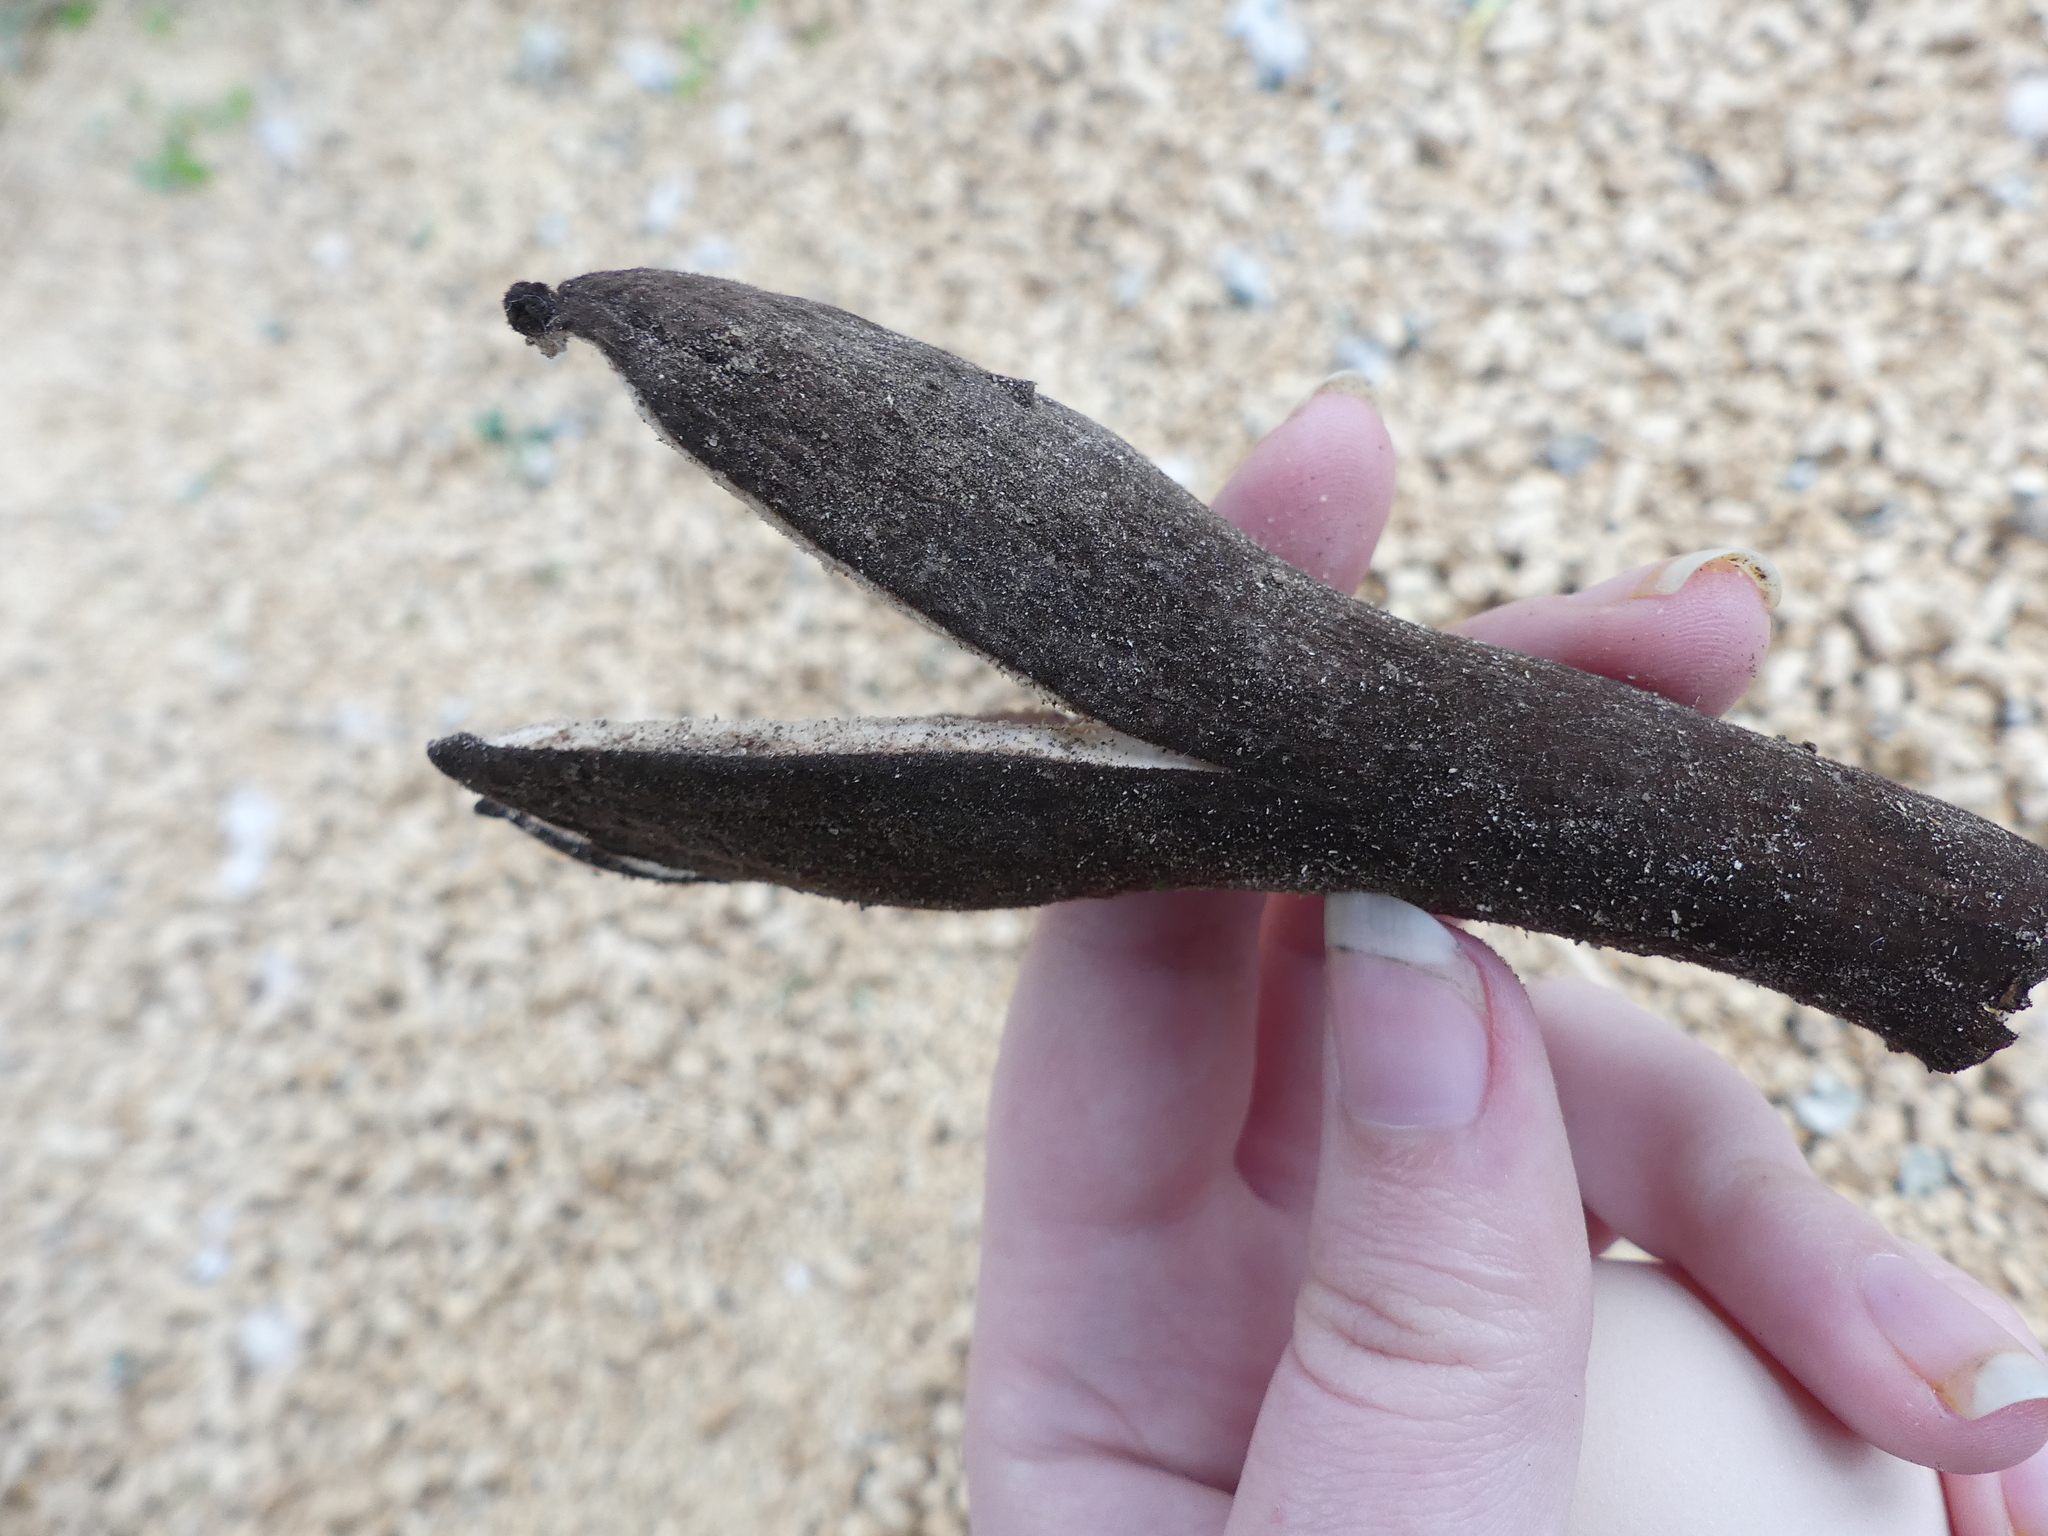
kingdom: Fungi
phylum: Ascomycota
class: Pezizomycetes
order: Pezizales
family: Chorioactidaceae
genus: Chorioactis
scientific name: Chorioactis geaster
